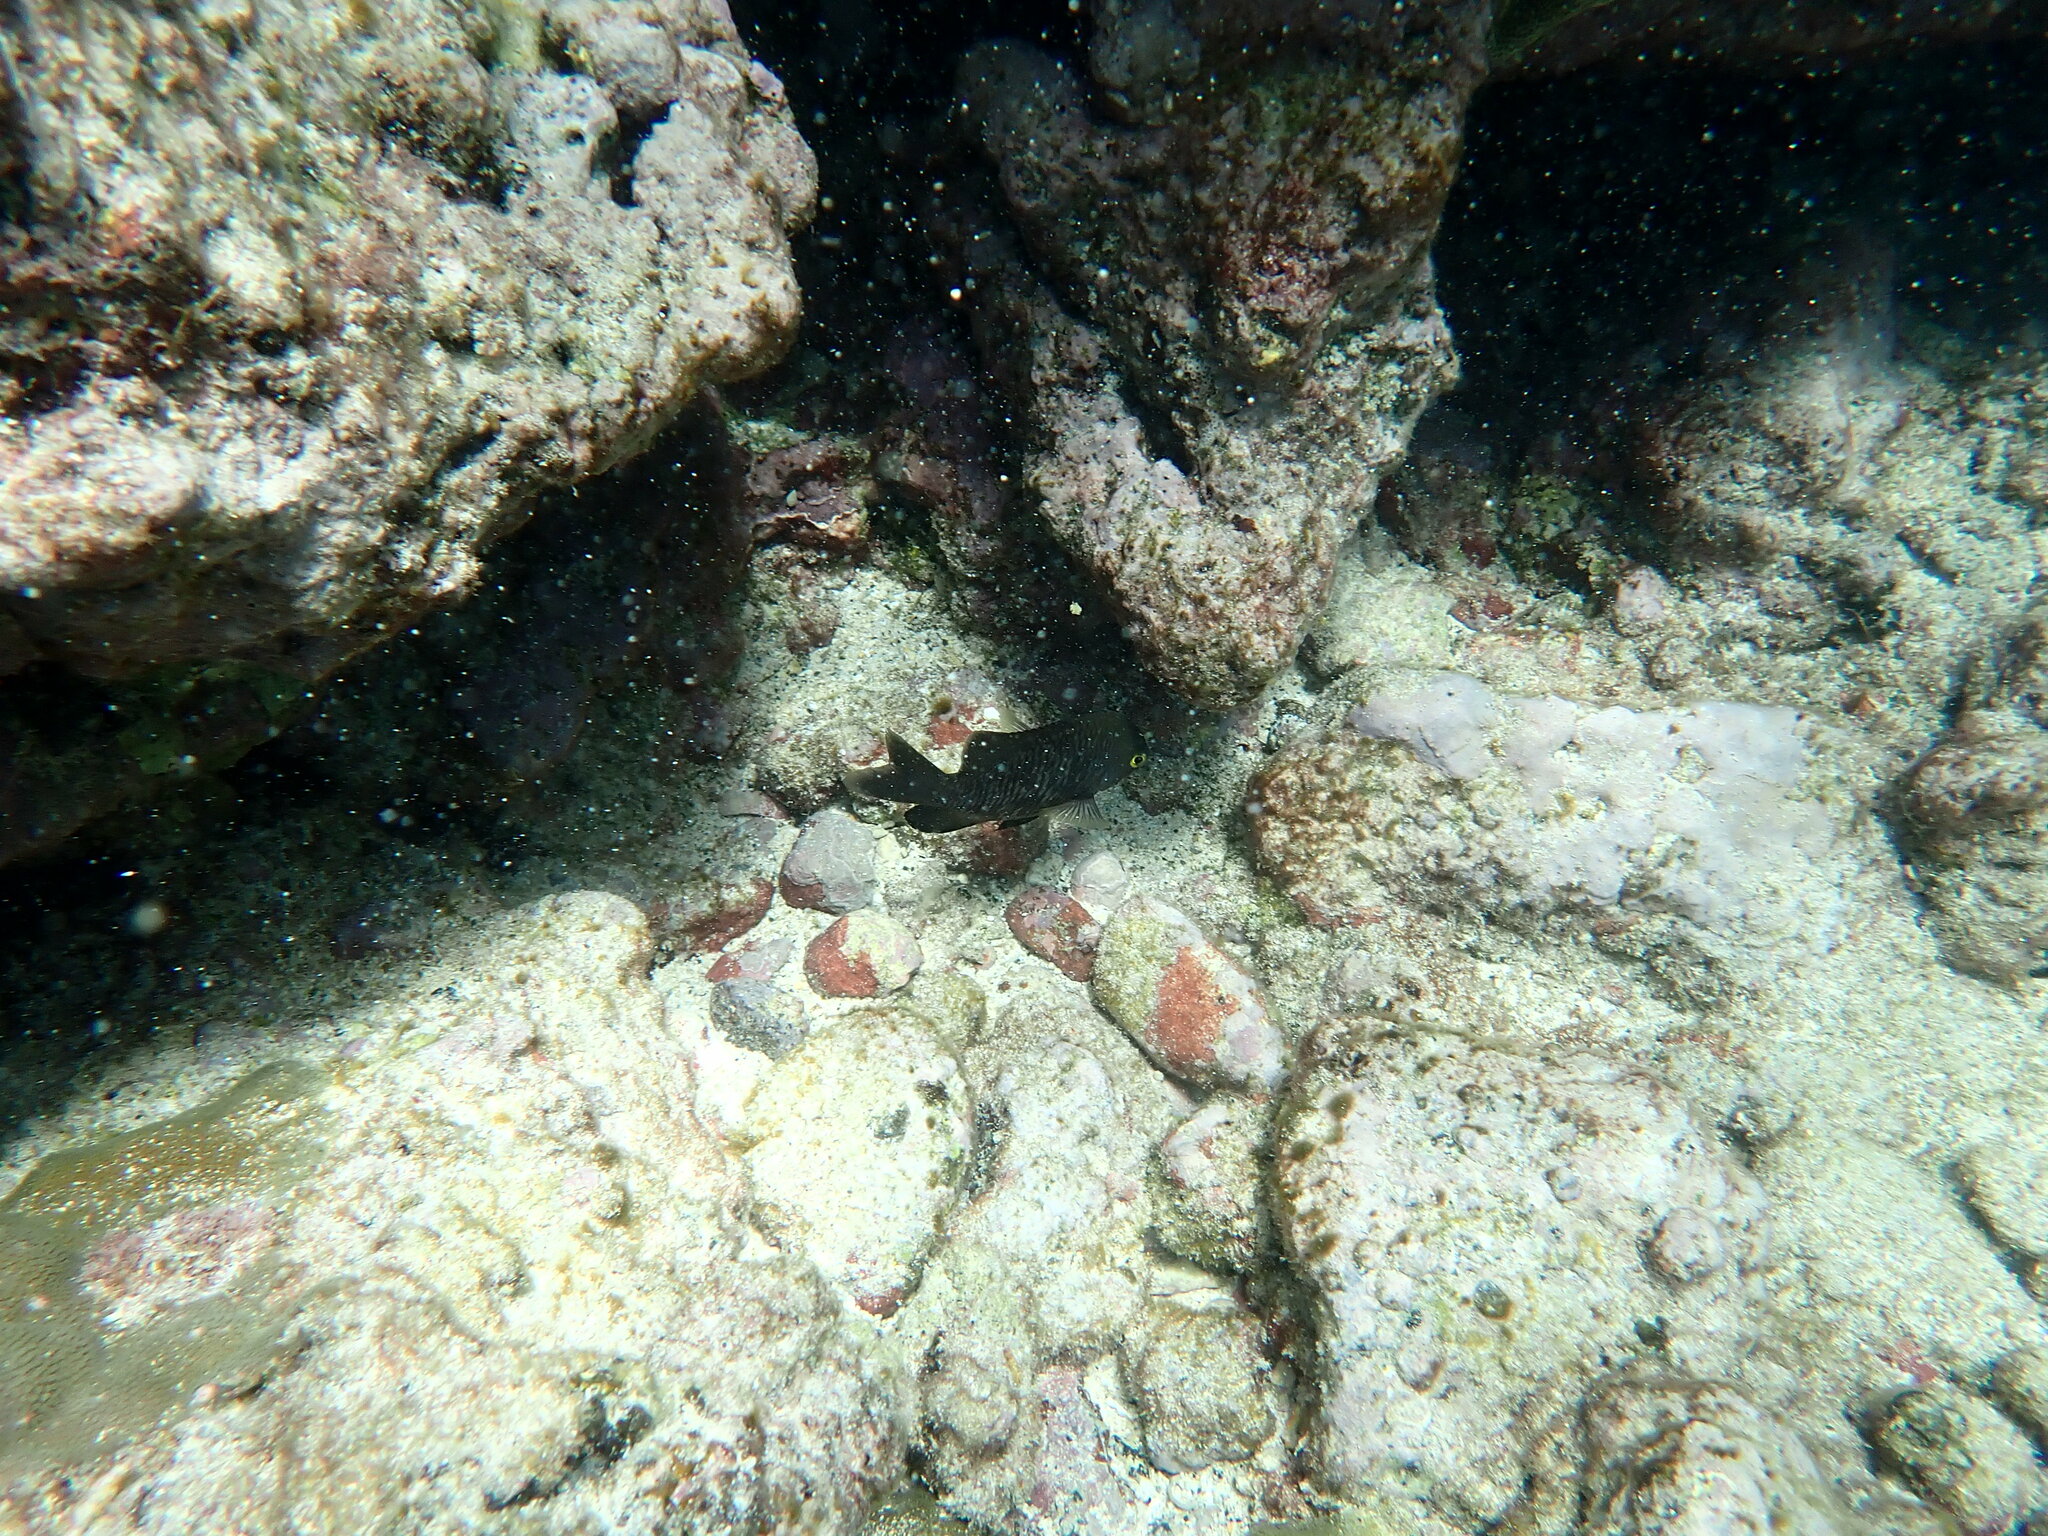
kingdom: Animalia
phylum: Chordata
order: Perciformes
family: Pomacentridae
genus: Stegastes
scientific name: Stegastes fasciolatus
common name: Pacific gregory
